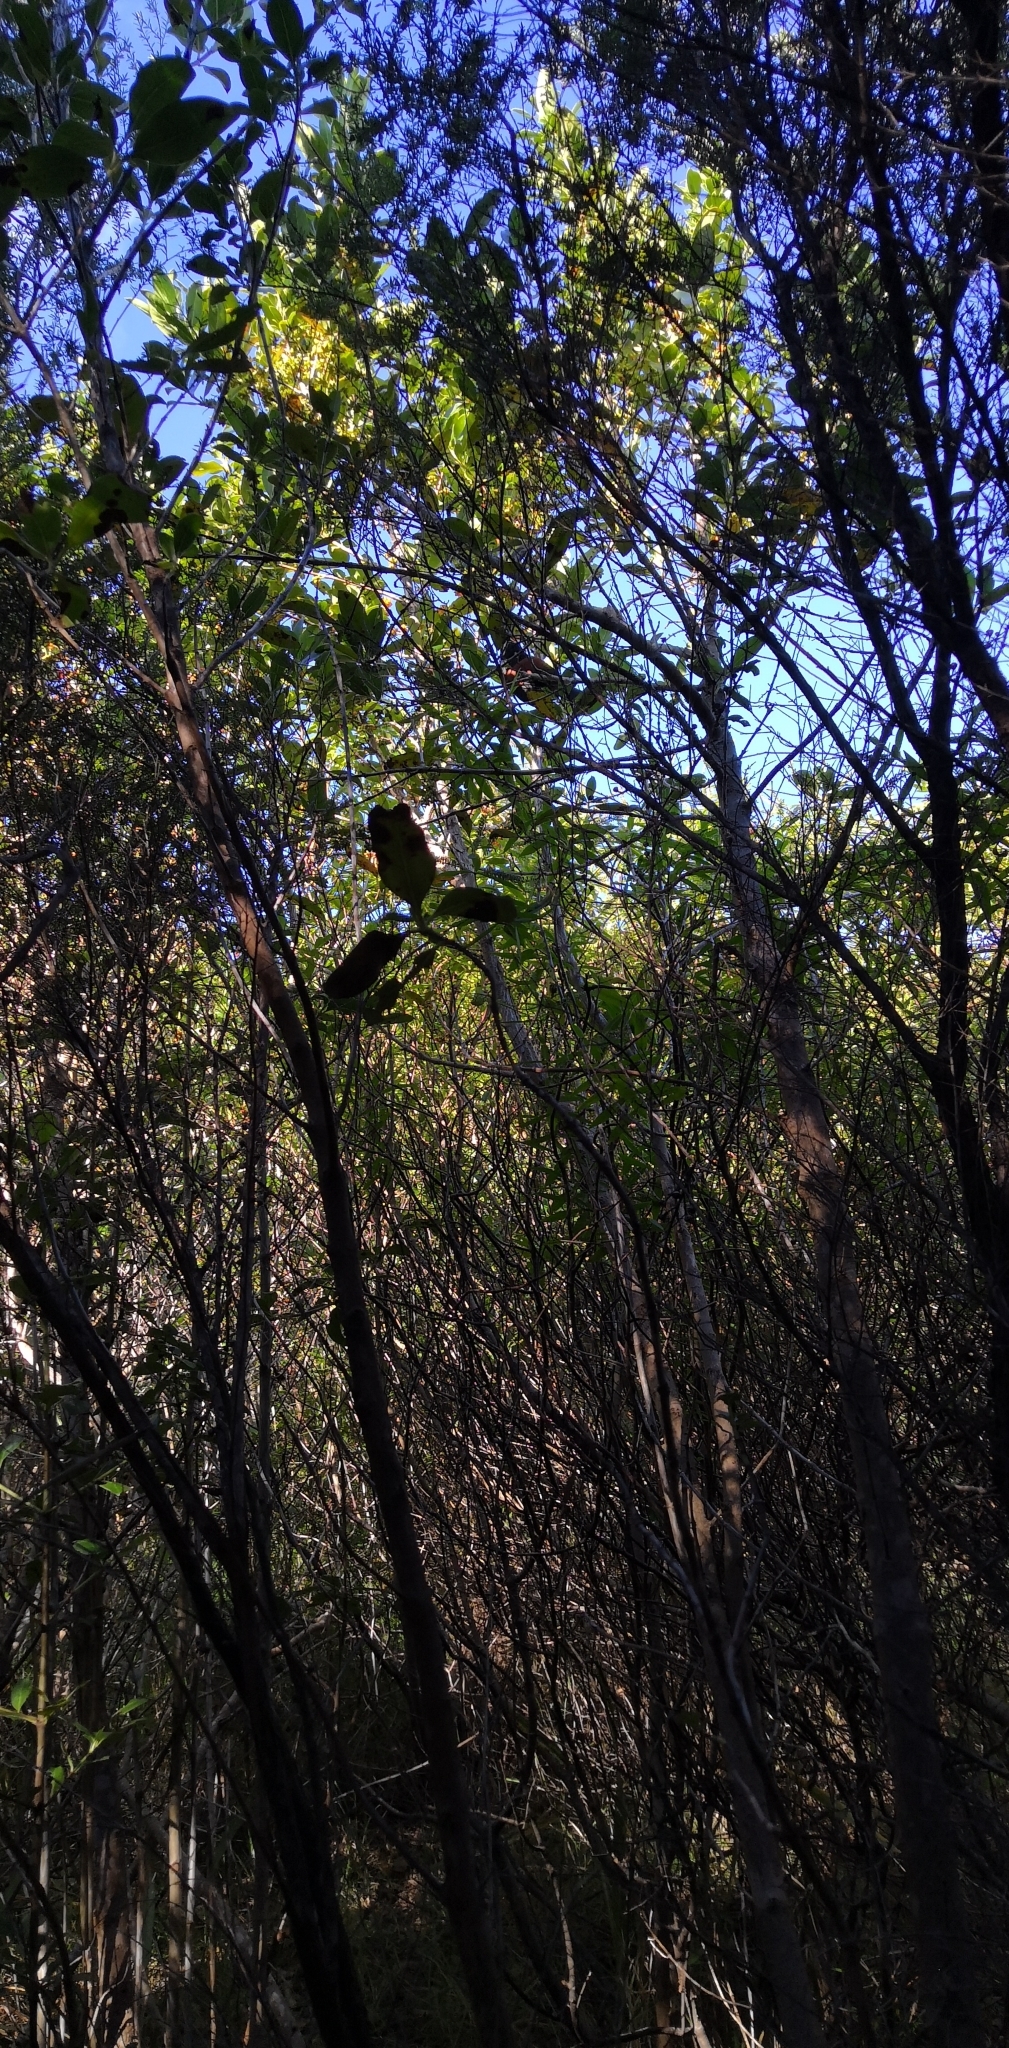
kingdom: Animalia
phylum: Chordata
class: Aves
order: Passeriformes
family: Callaeatidae
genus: Philesturnus
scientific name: Philesturnus carunculatus
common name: South island saddleback
